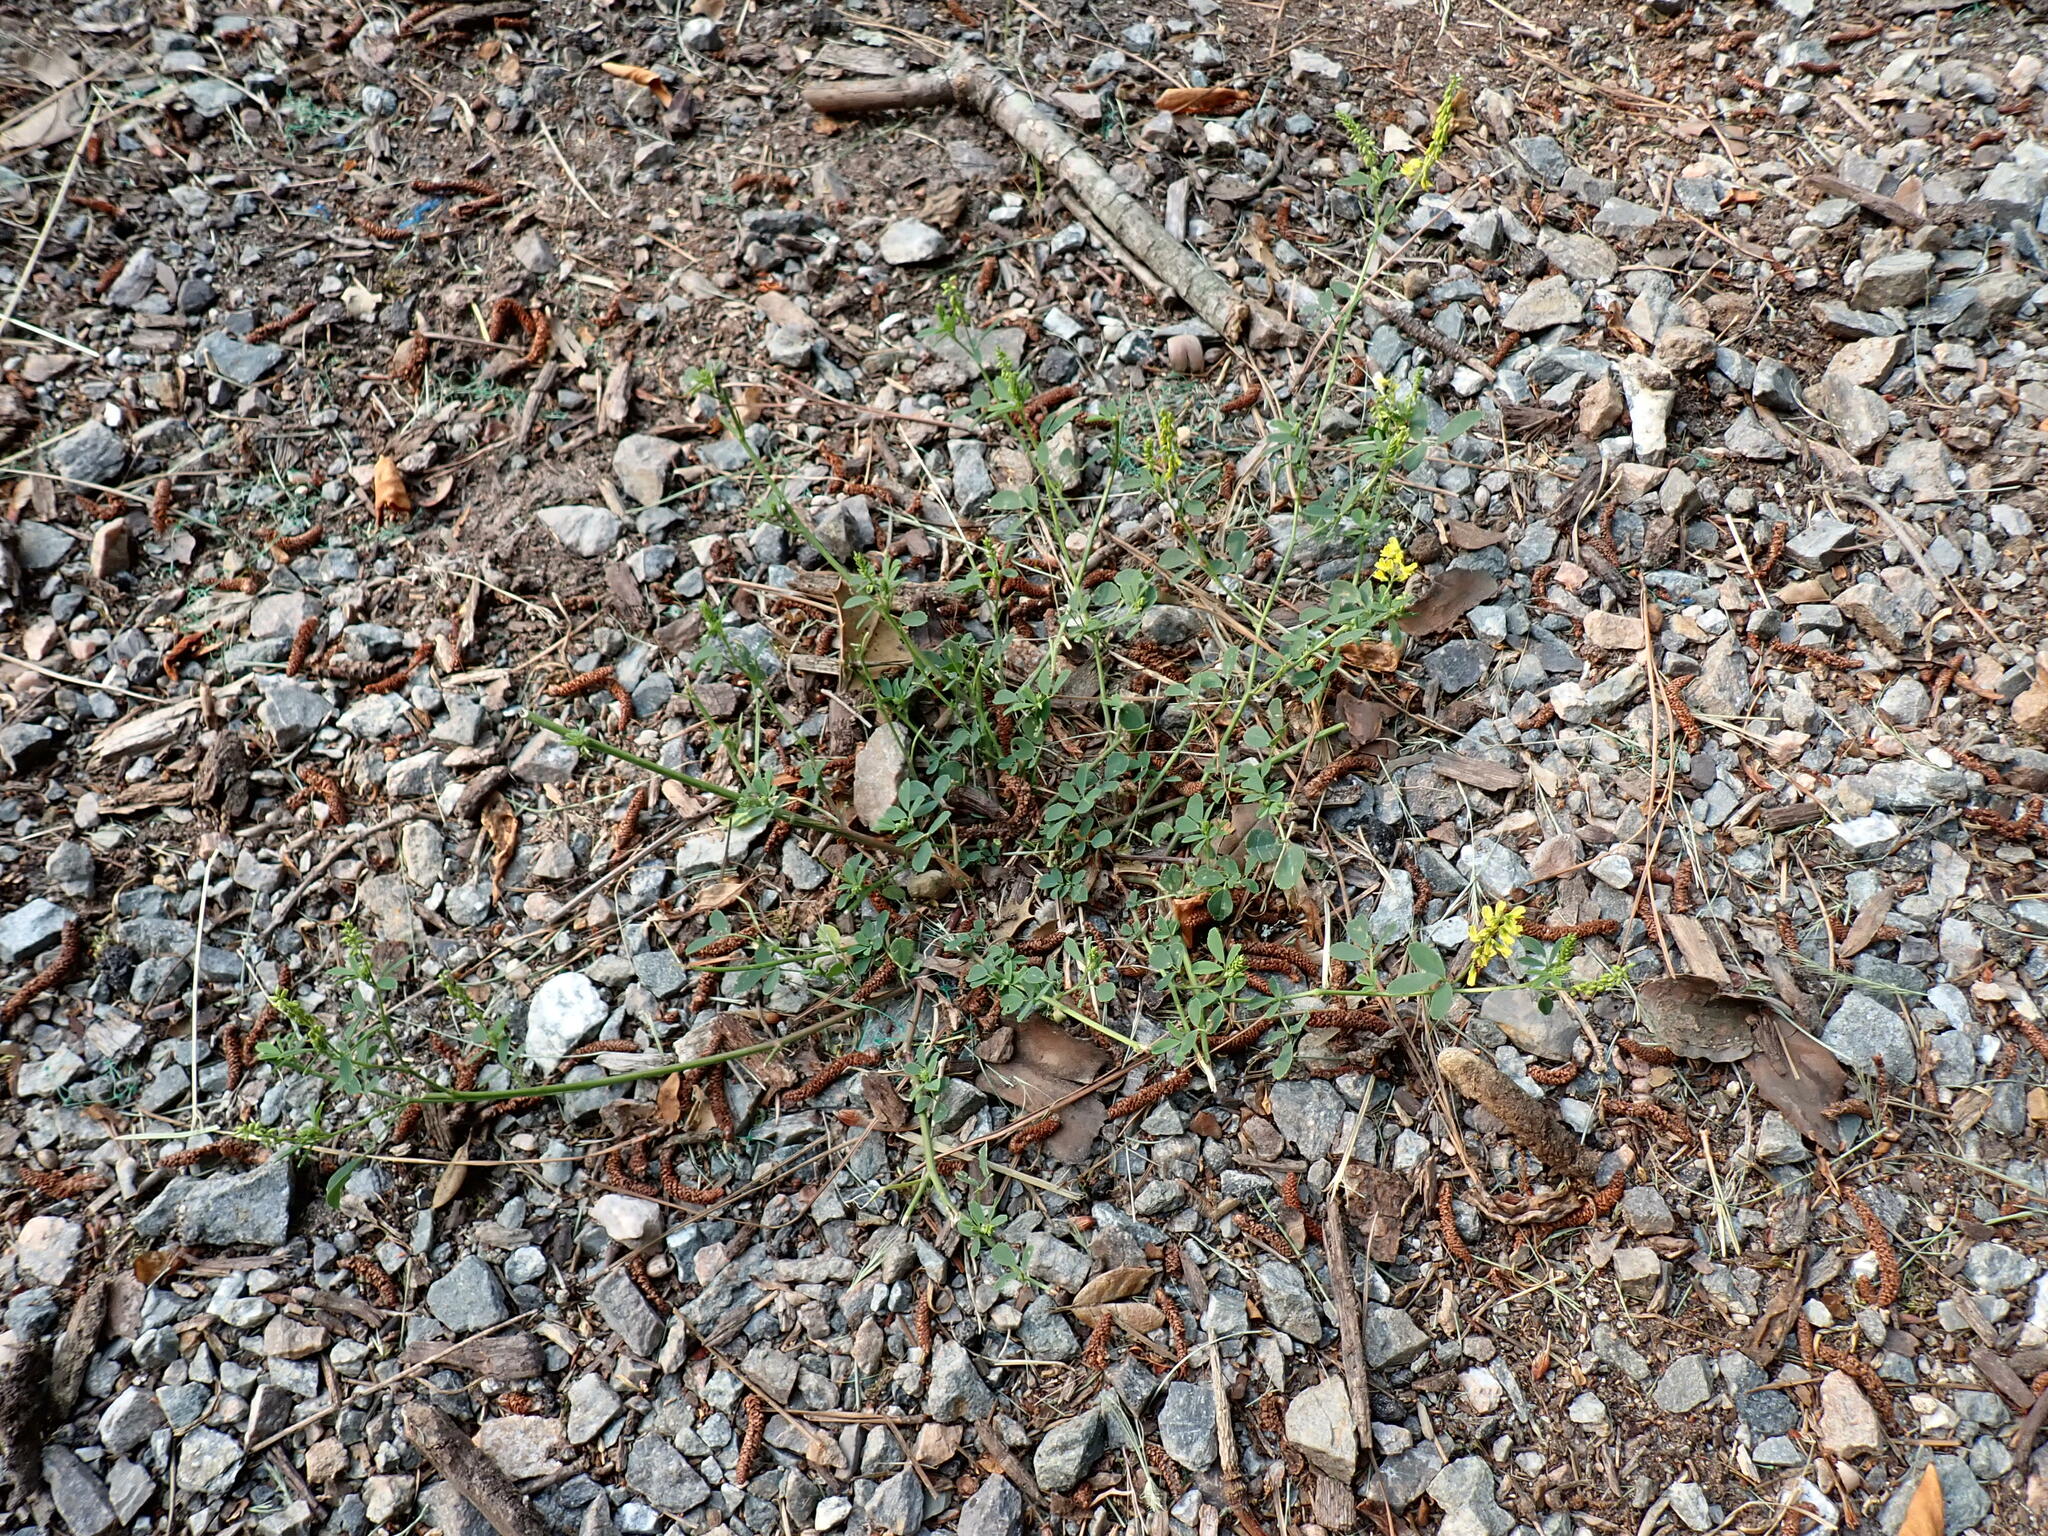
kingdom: Plantae
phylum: Tracheophyta
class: Magnoliopsida
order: Fabales
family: Fabaceae
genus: Melilotus
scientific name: Melilotus officinalis
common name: Sweetclover
